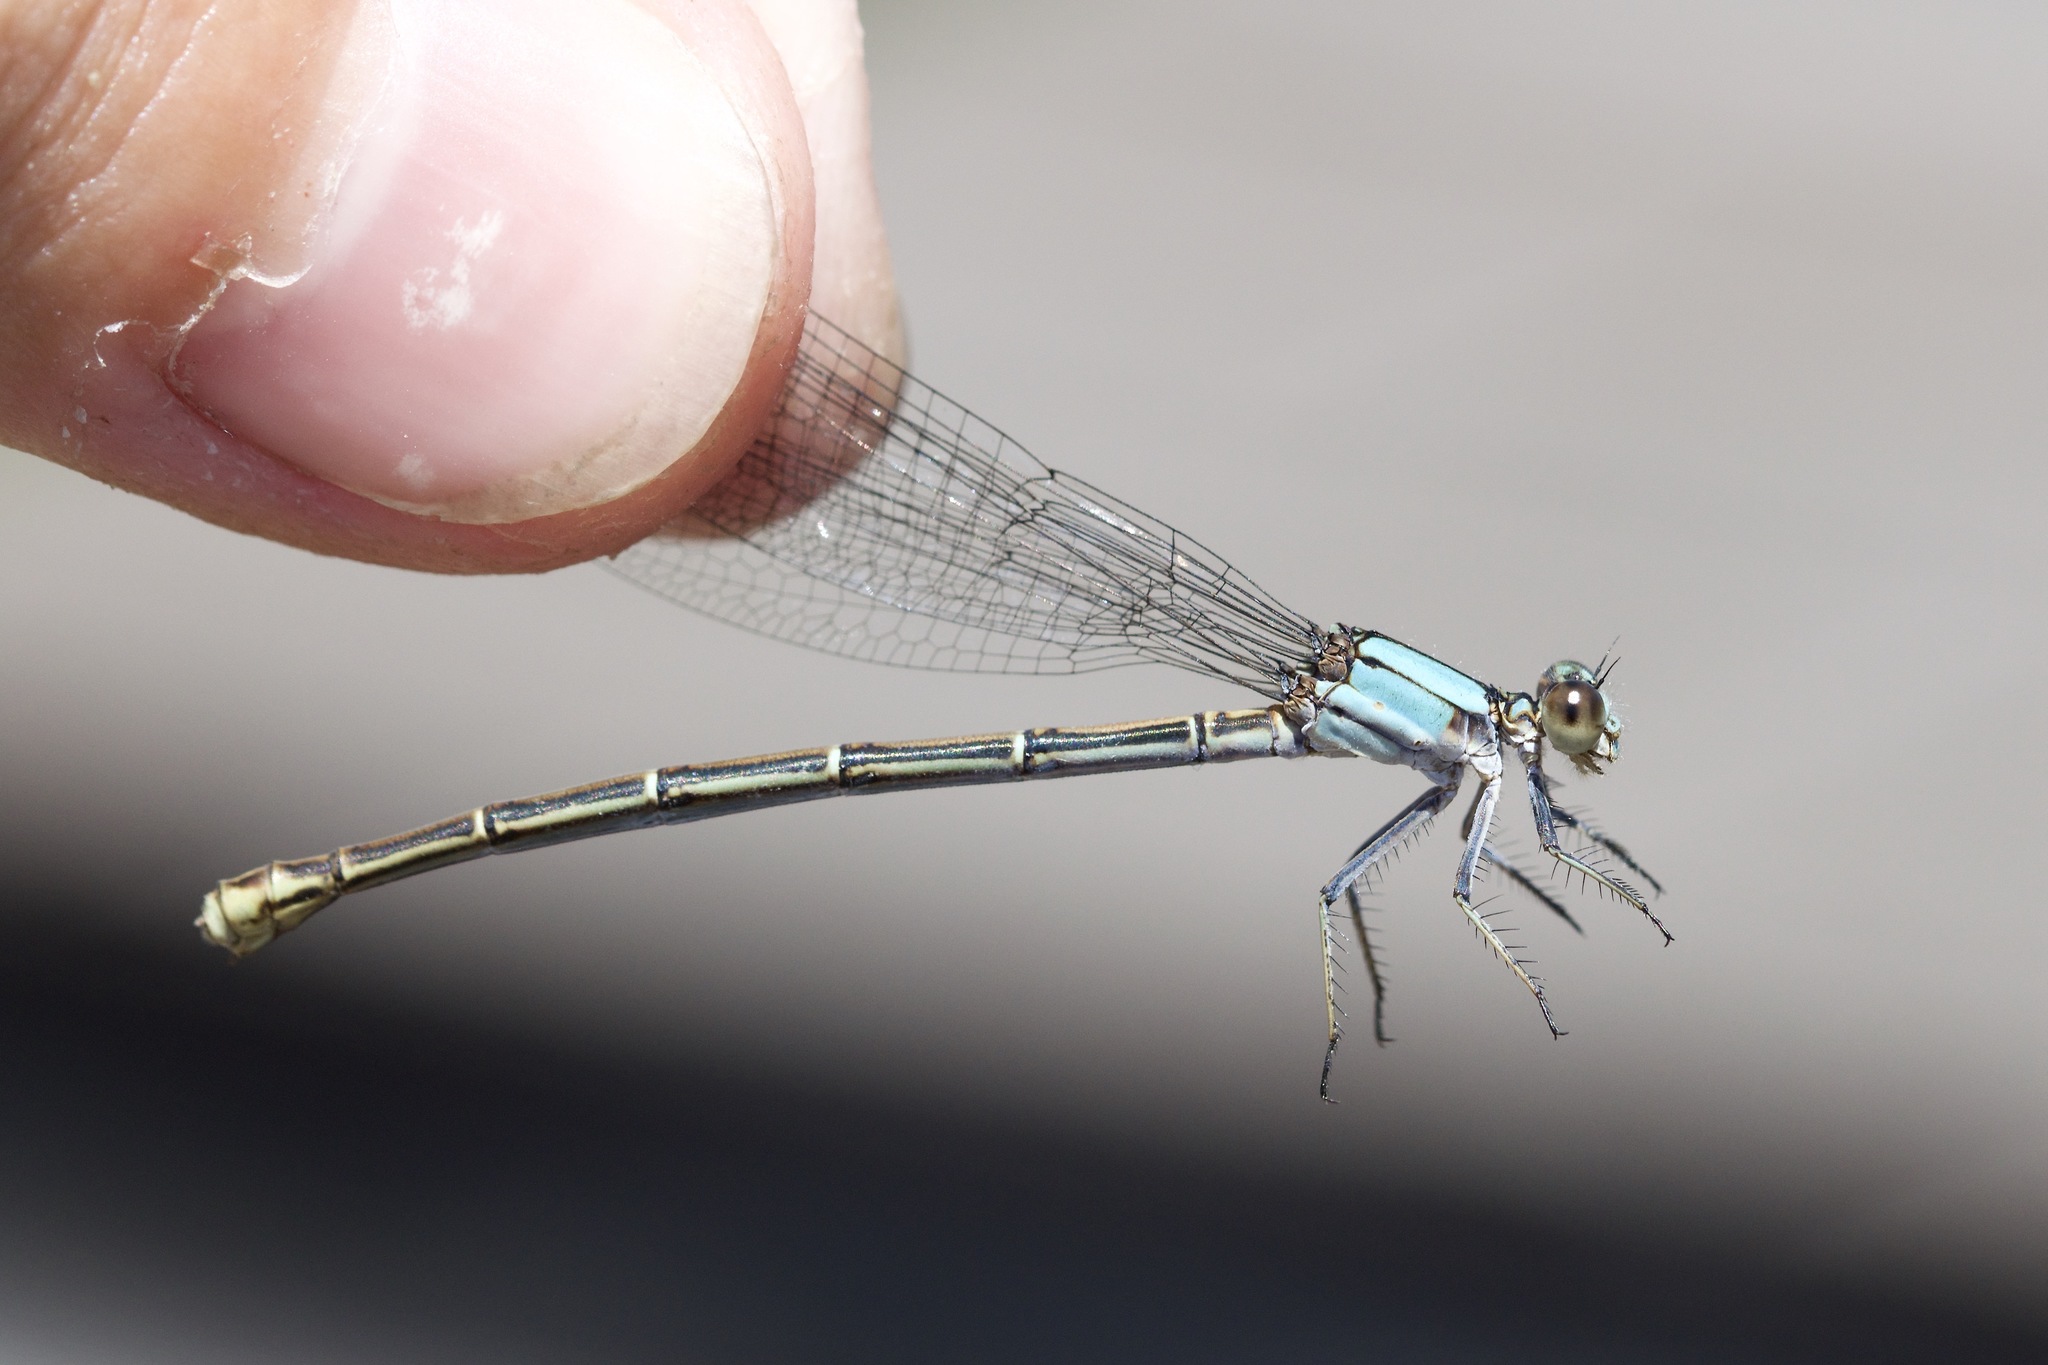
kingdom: Animalia
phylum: Arthropoda
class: Insecta
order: Odonata
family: Coenagrionidae
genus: Argia
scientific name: Argia moesta
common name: Powdered dancer
